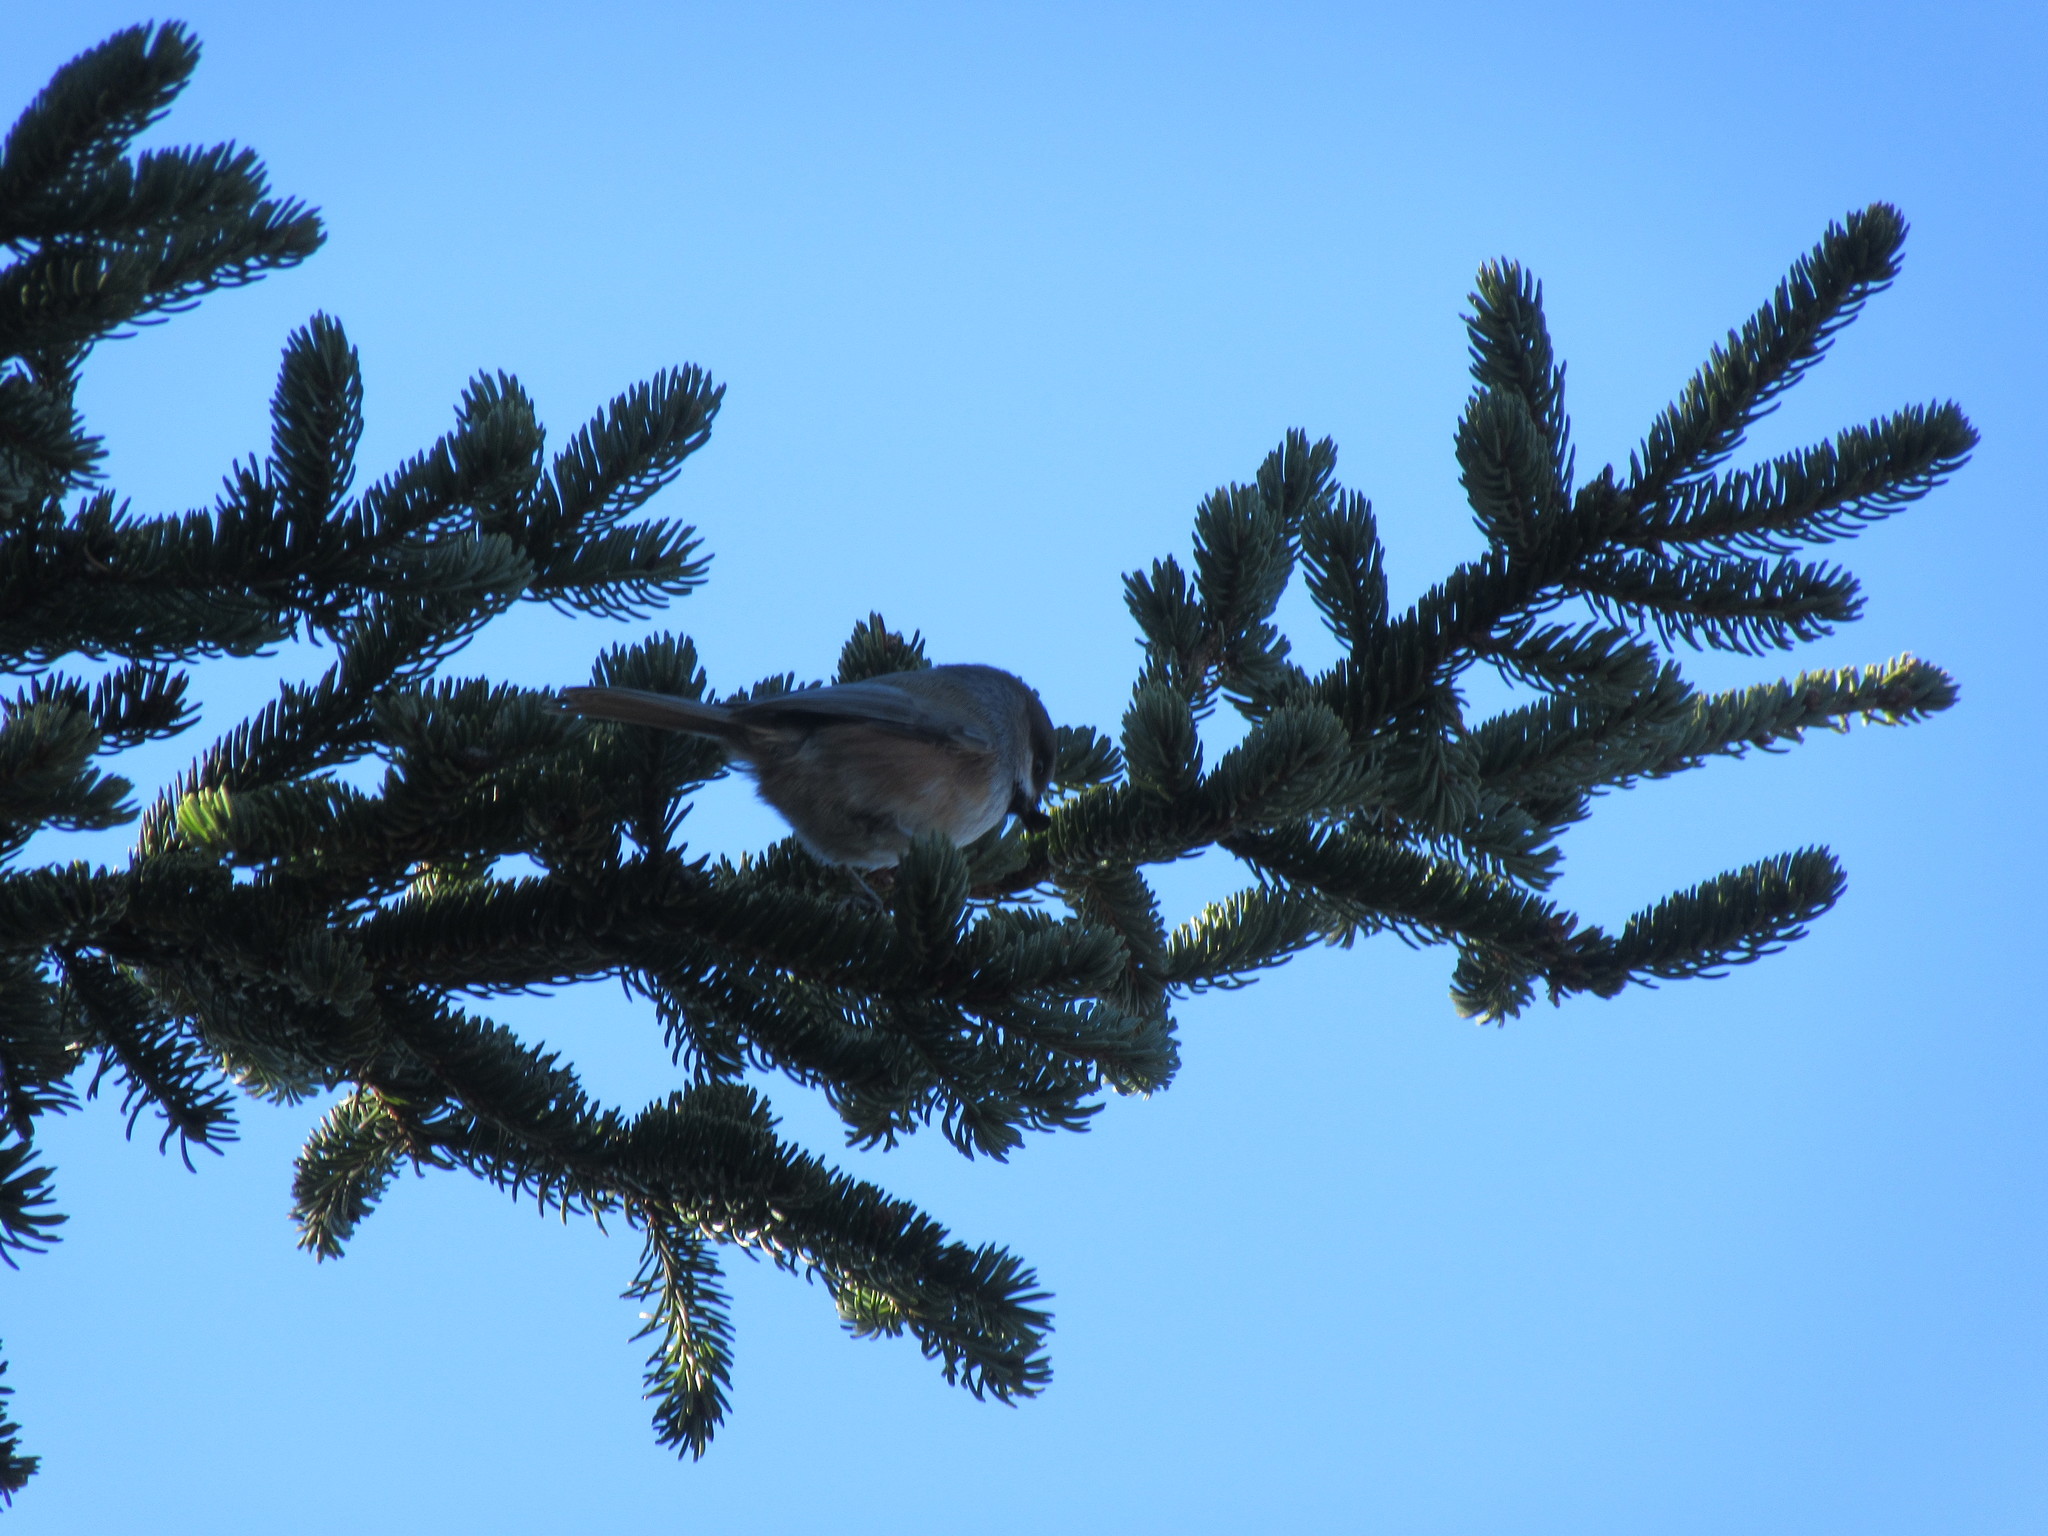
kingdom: Animalia
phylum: Chordata
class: Aves
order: Passeriformes
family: Paridae
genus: Poecile
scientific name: Poecile hudsonicus
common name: Boreal chickadee
